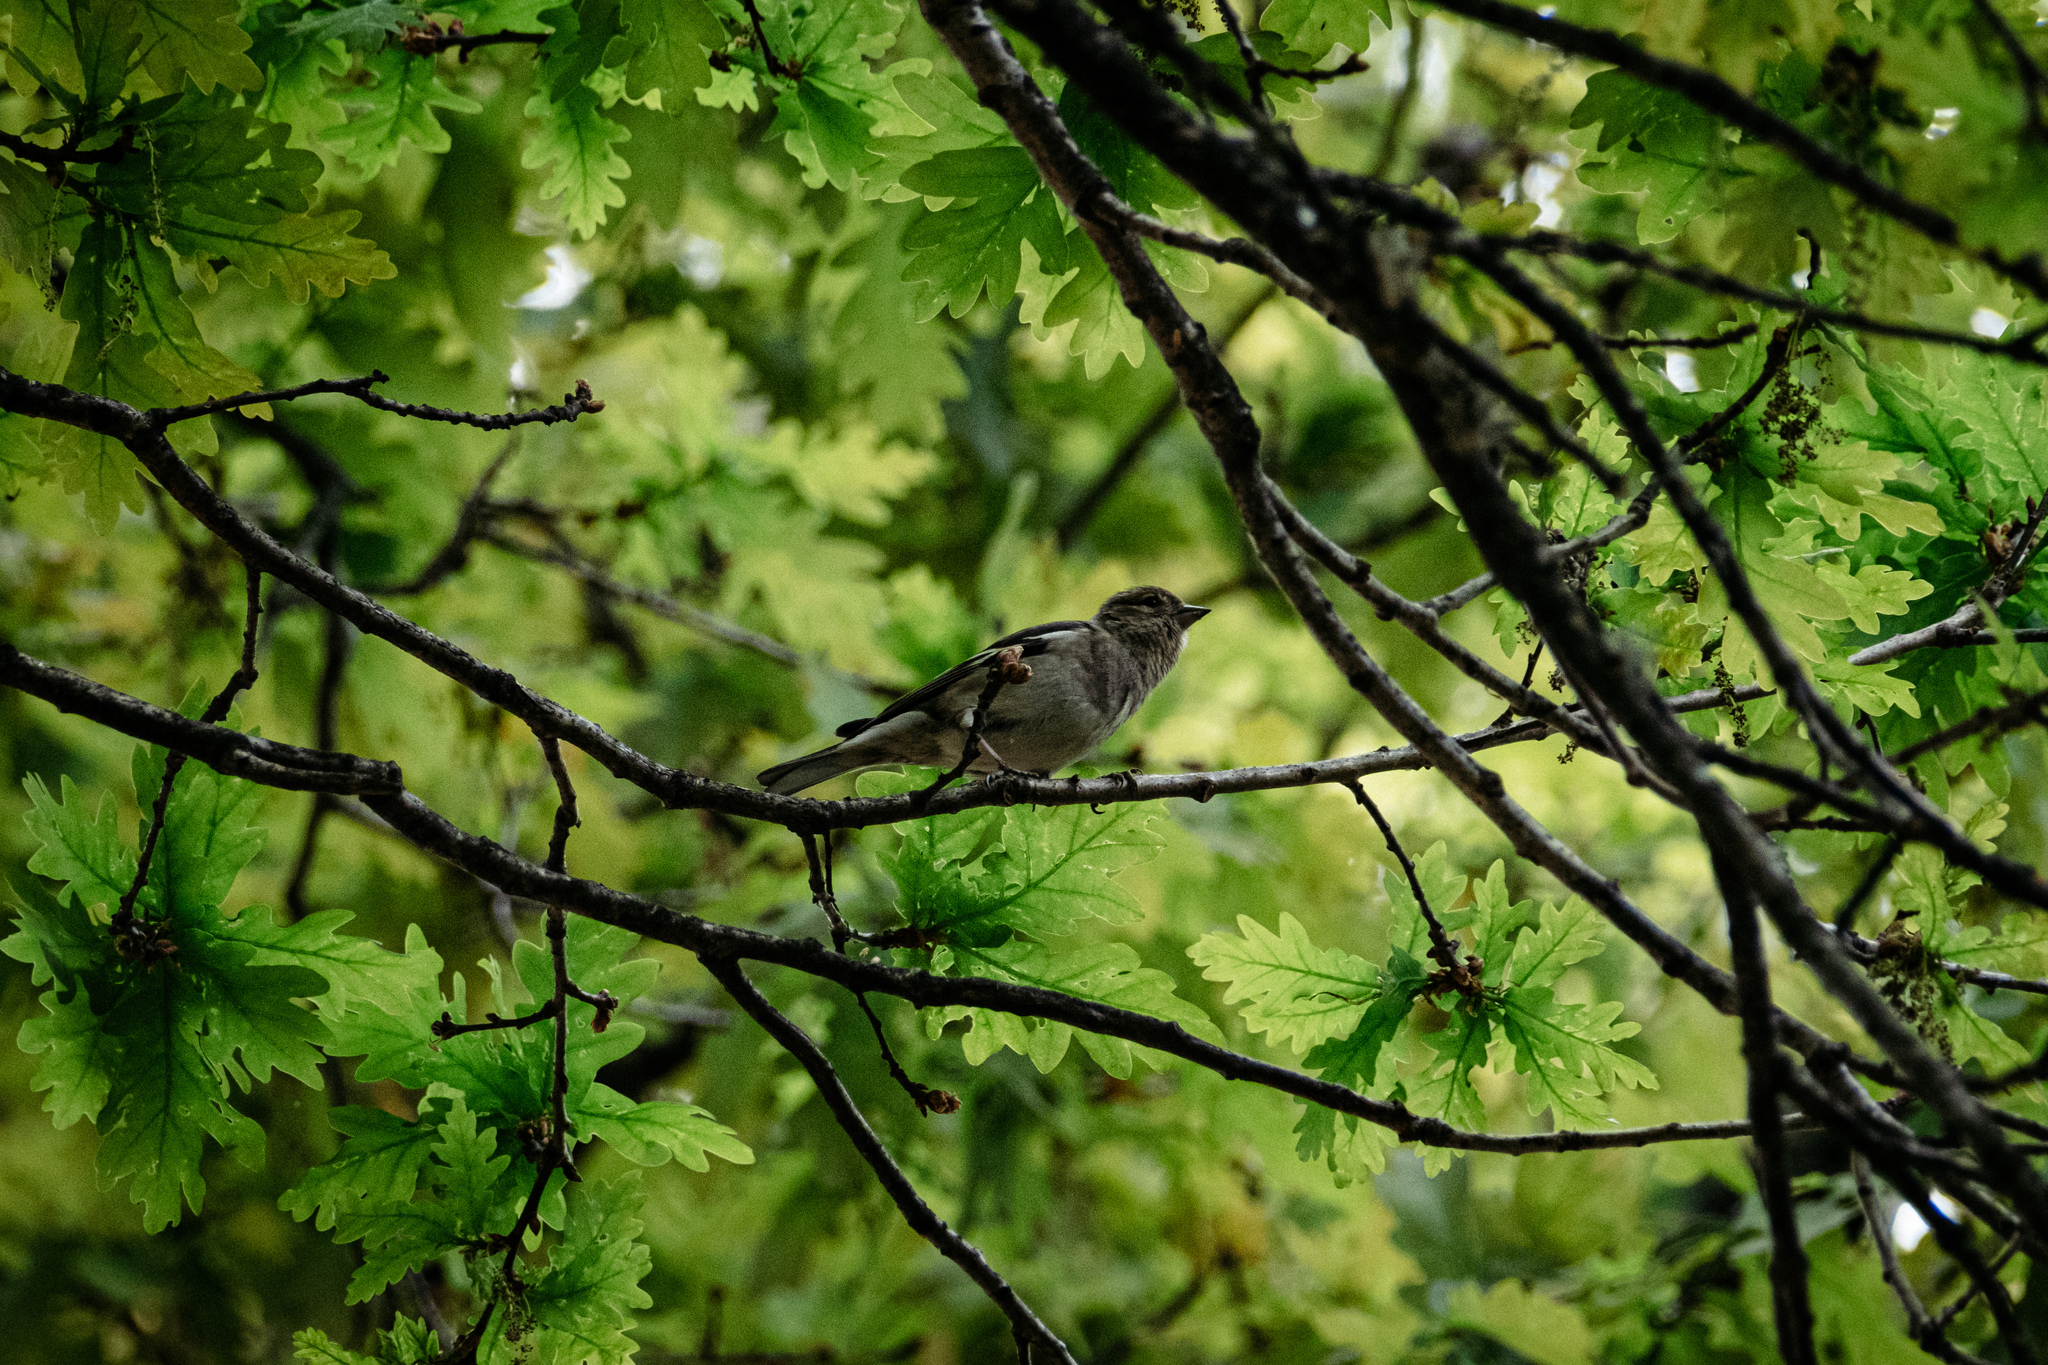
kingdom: Animalia
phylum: Chordata
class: Aves
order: Passeriformes
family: Fringillidae
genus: Fringilla
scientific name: Fringilla coelebs
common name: Common chaffinch
